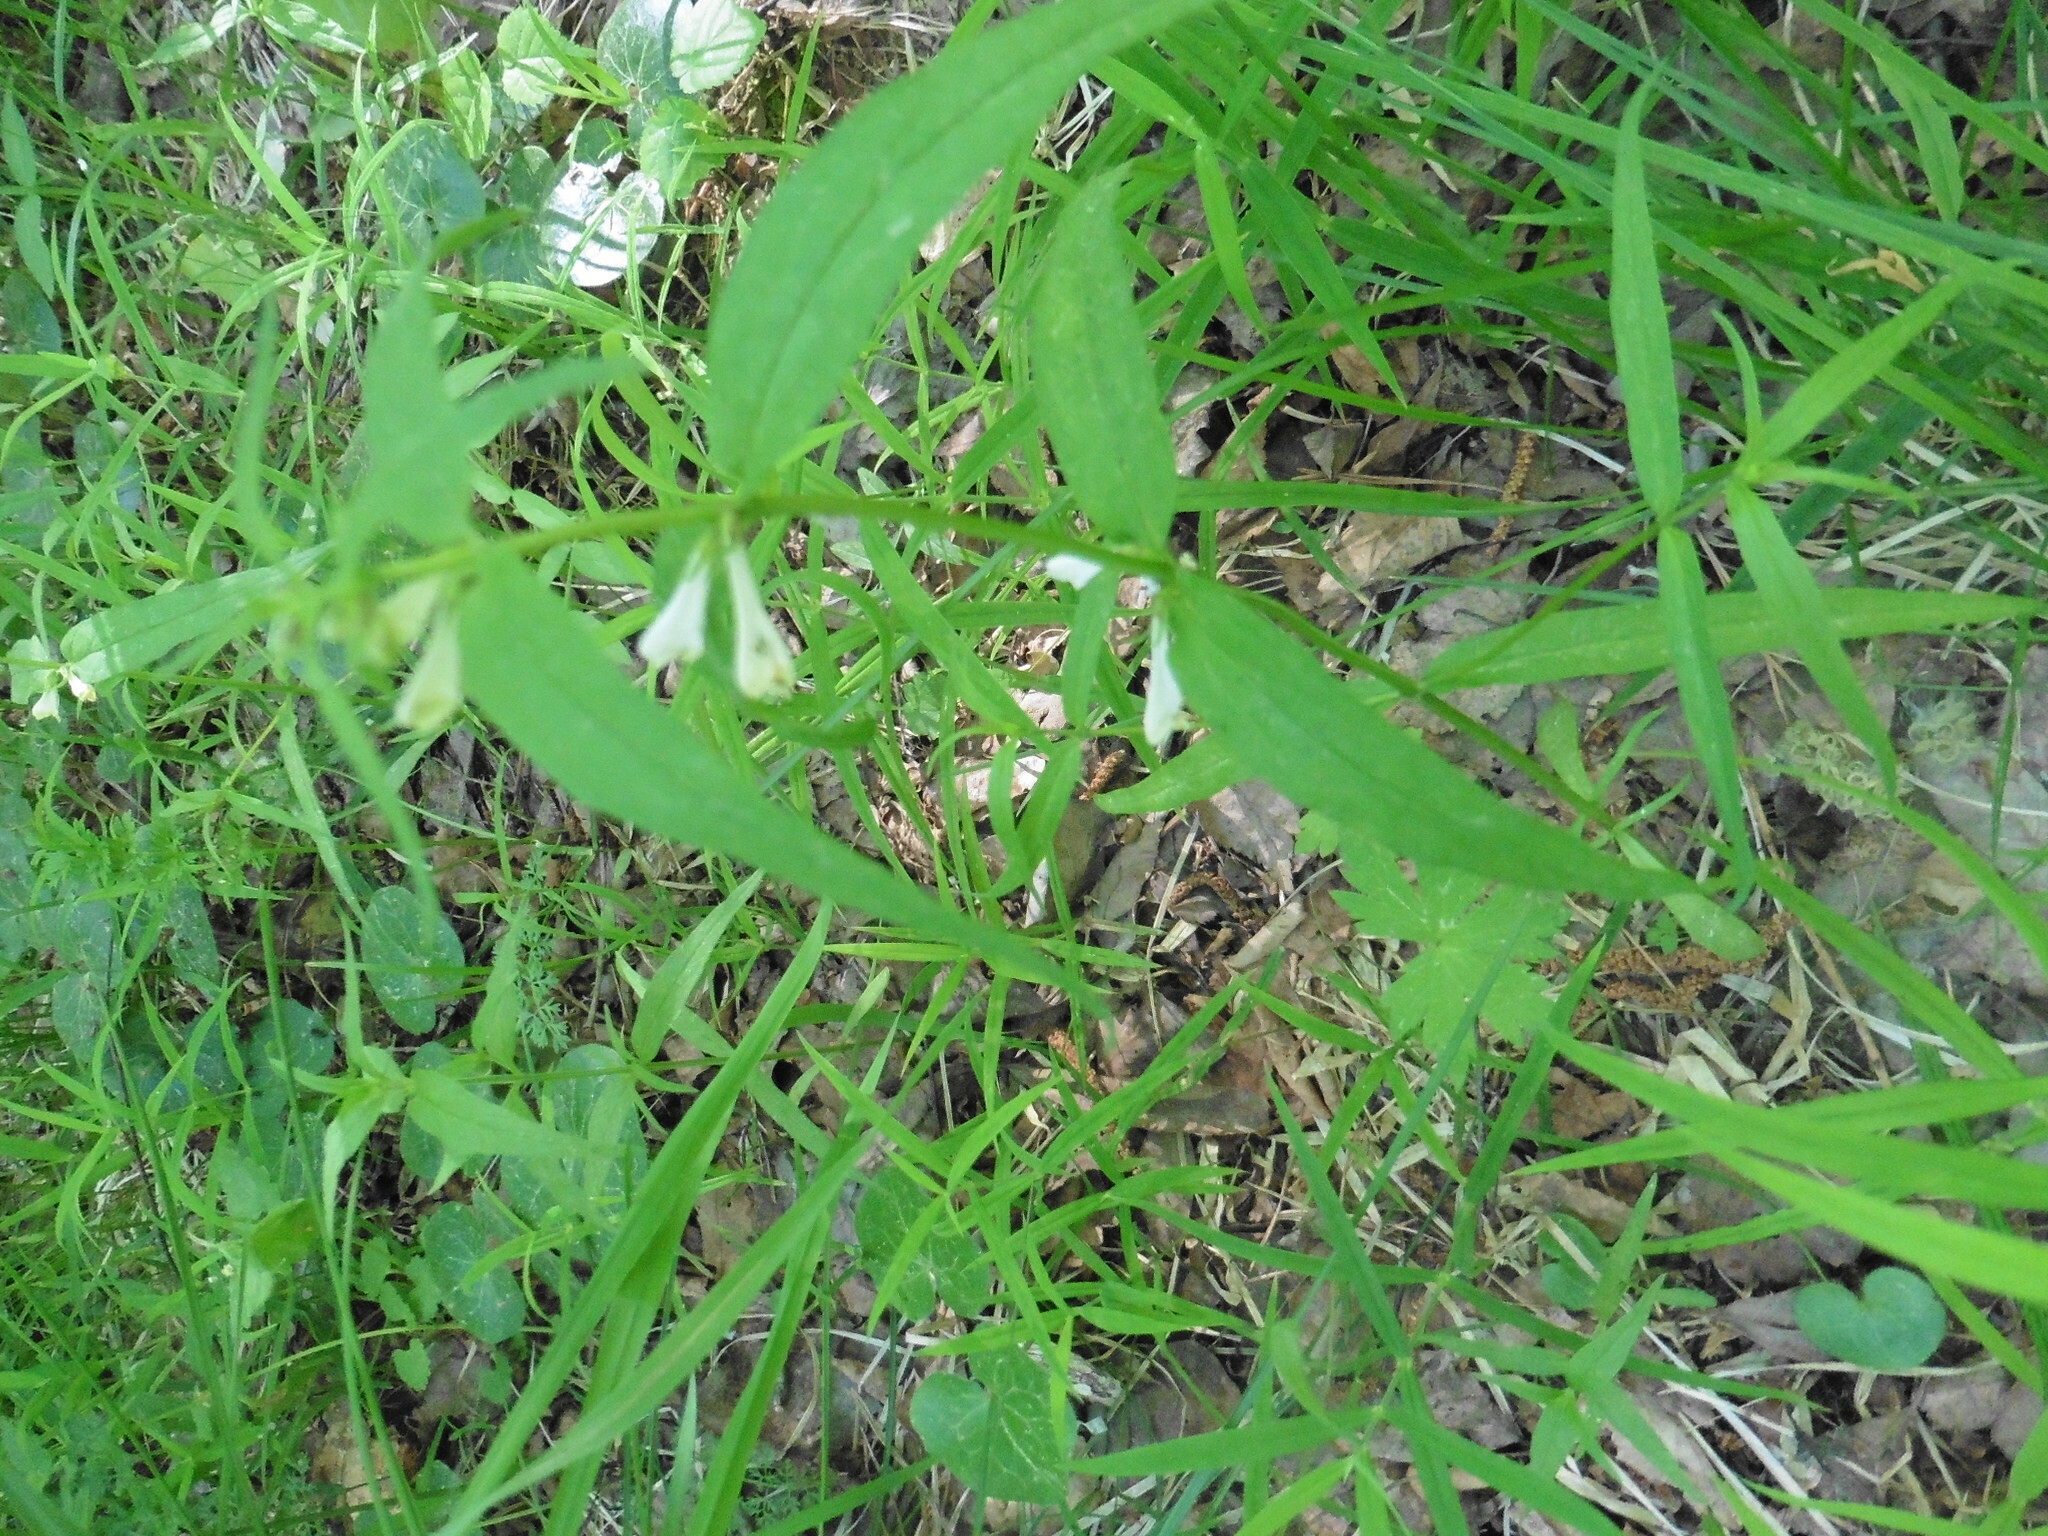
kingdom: Plantae
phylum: Tracheophyta
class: Magnoliopsida
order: Lamiales
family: Orobanchaceae
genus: Melampyrum
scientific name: Melampyrum pratense
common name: Common cow-wheat
